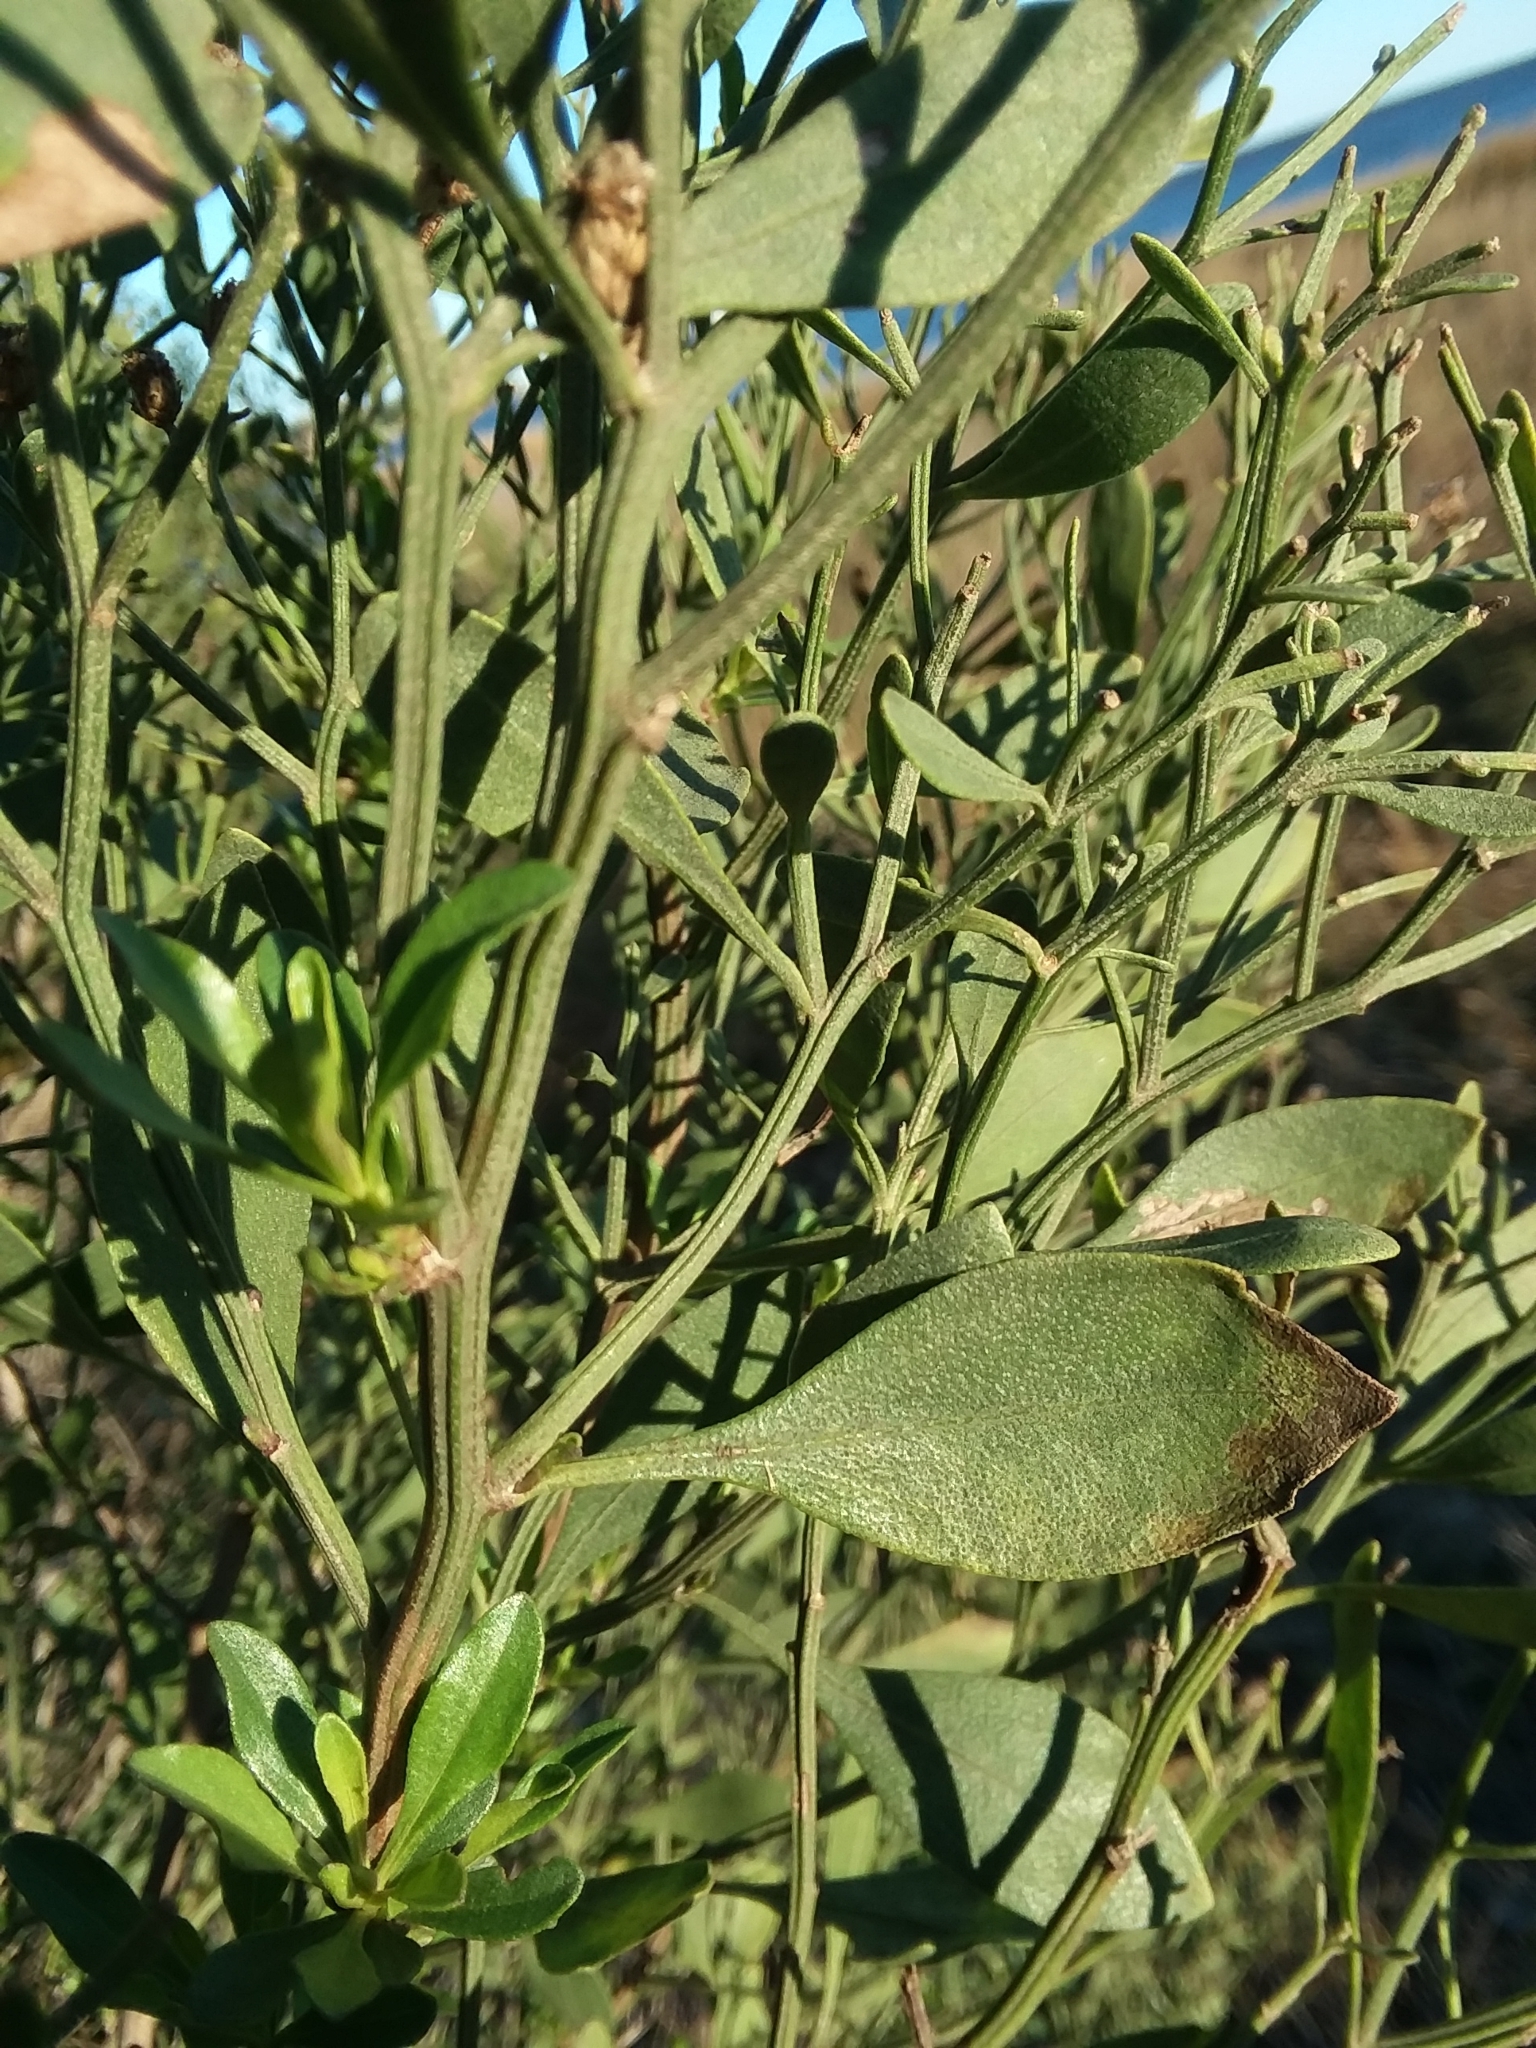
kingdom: Plantae
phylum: Tracheophyta
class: Magnoliopsida
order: Asterales
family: Asteraceae
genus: Baccharis
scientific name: Baccharis halimifolia
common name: Eastern baccharis
